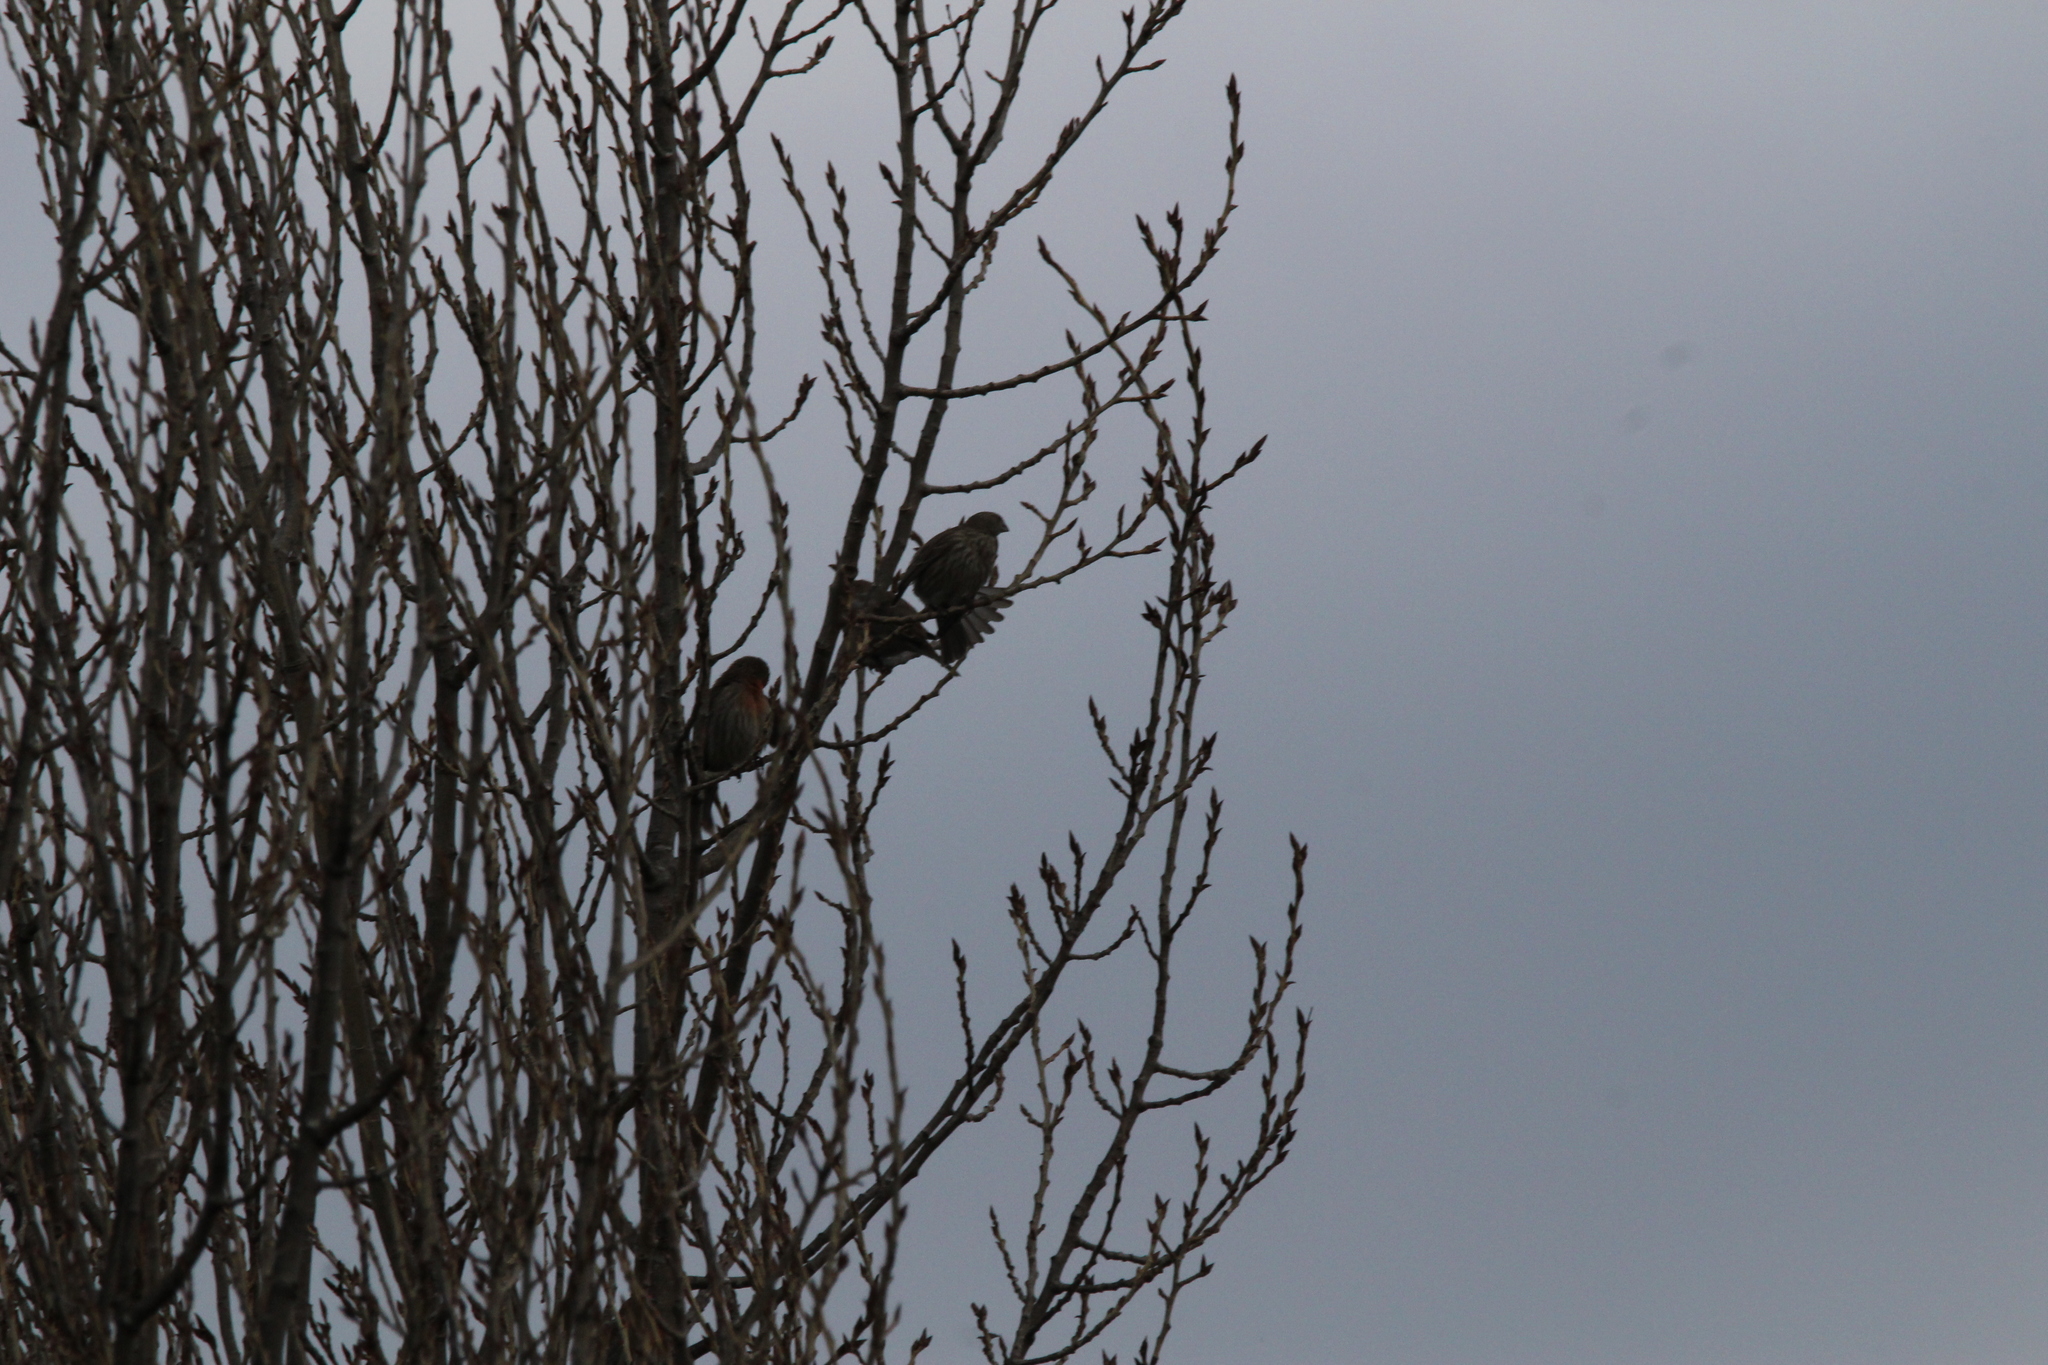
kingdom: Animalia
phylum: Chordata
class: Aves
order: Passeriformes
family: Fringillidae
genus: Haemorhous
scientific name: Haemorhous mexicanus
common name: House finch
